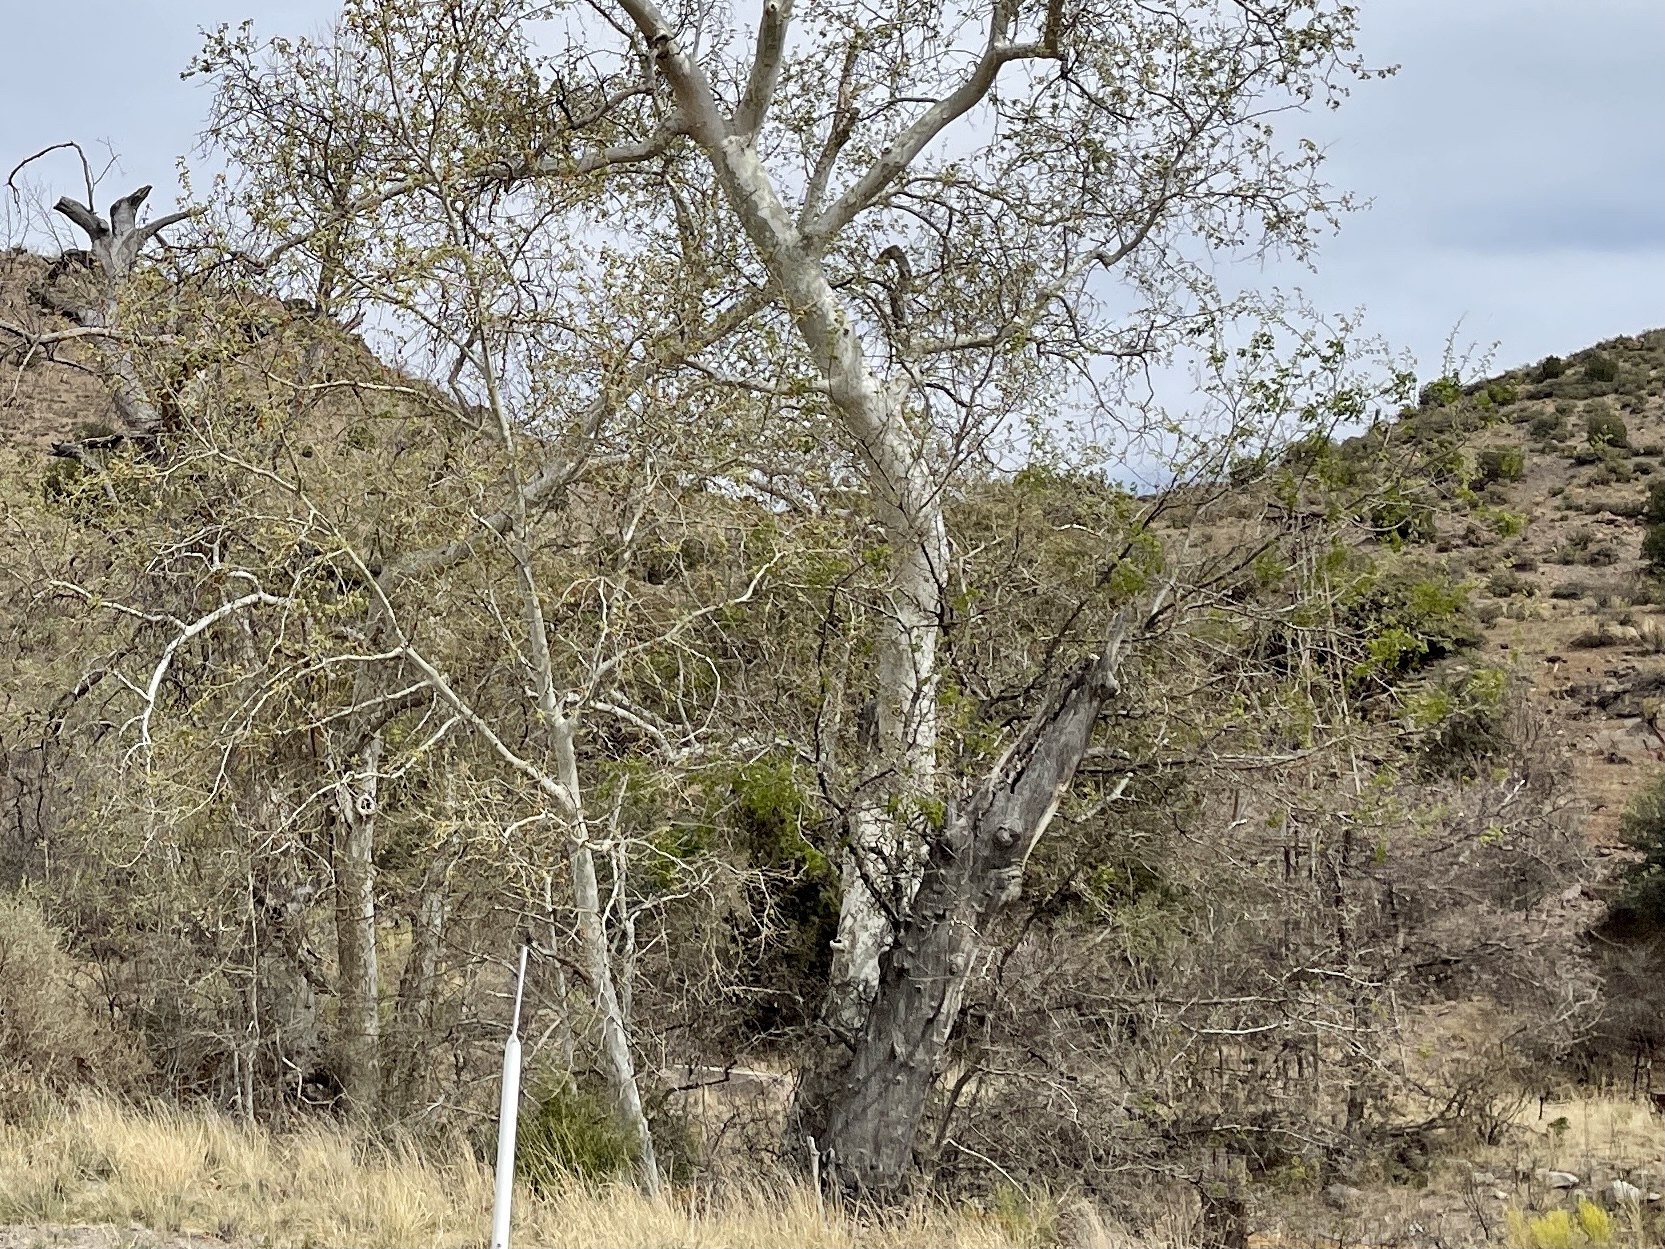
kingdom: Plantae
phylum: Tracheophyta
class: Magnoliopsida
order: Proteales
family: Platanaceae
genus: Platanus
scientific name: Platanus wrightii
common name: Arizona sycamore
